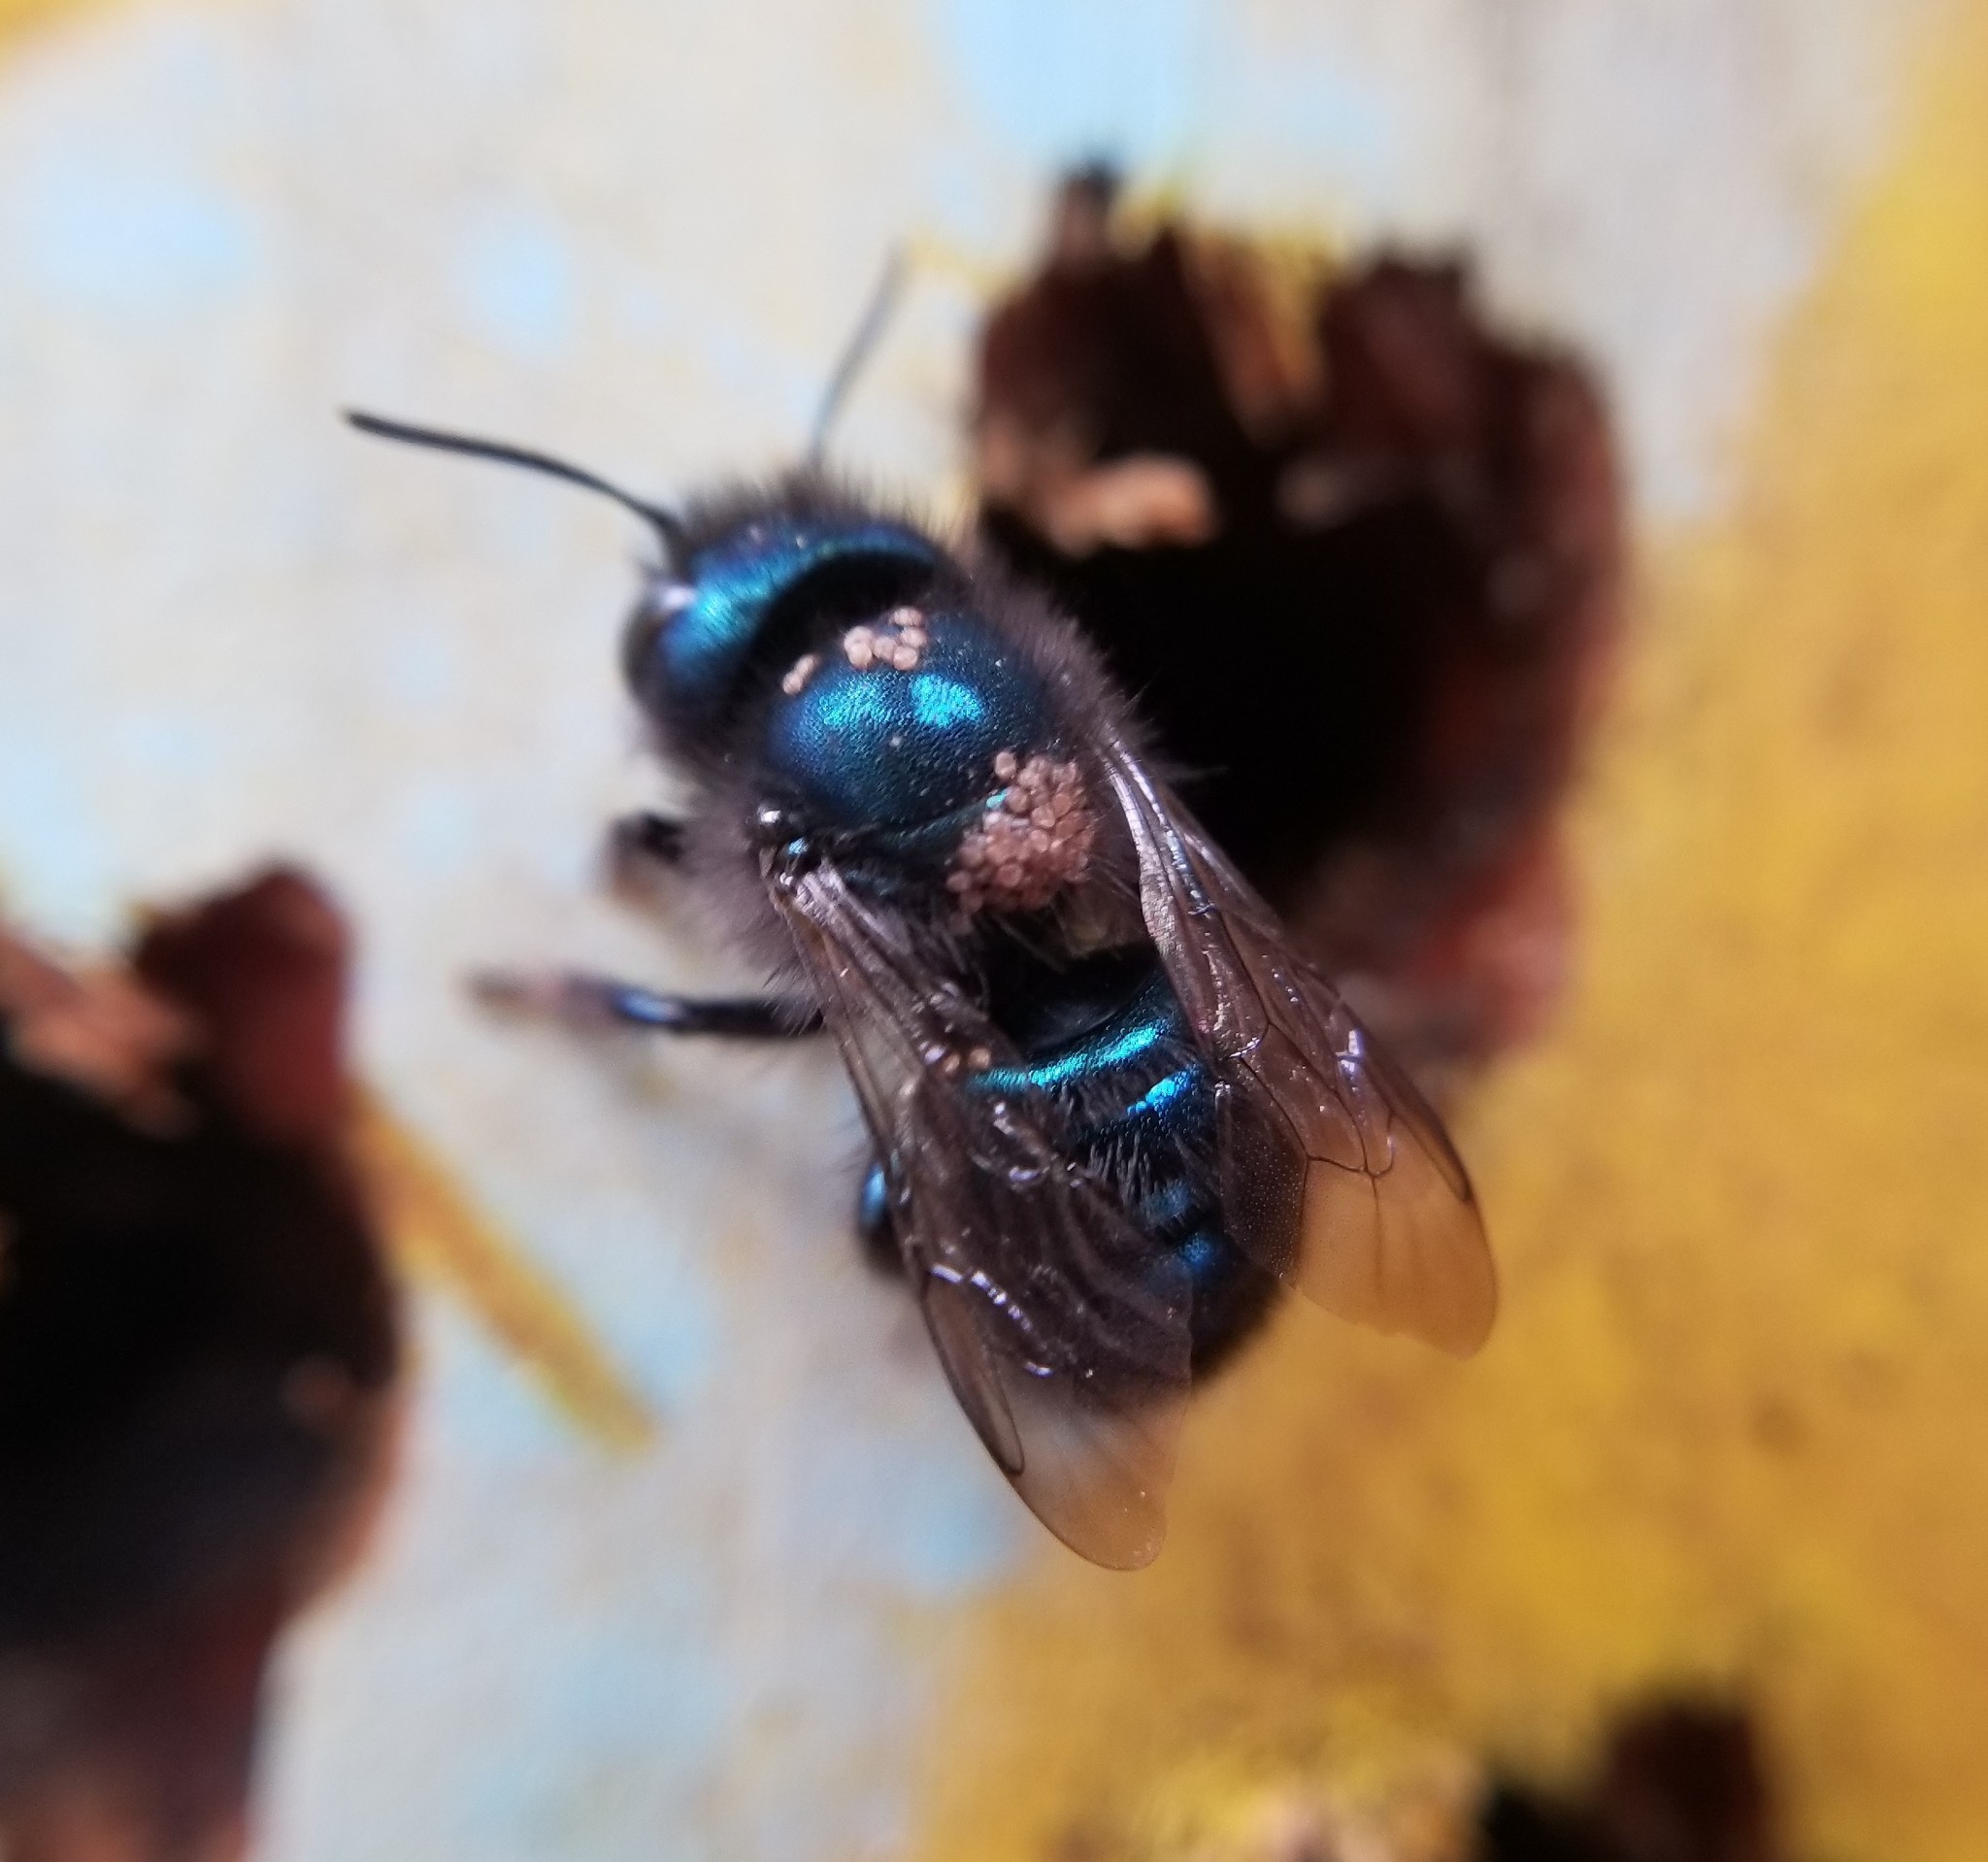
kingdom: Animalia
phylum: Arthropoda
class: Insecta
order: Hymenoptera
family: Megachilidae
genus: Osmia
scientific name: Osmia ribifloris
